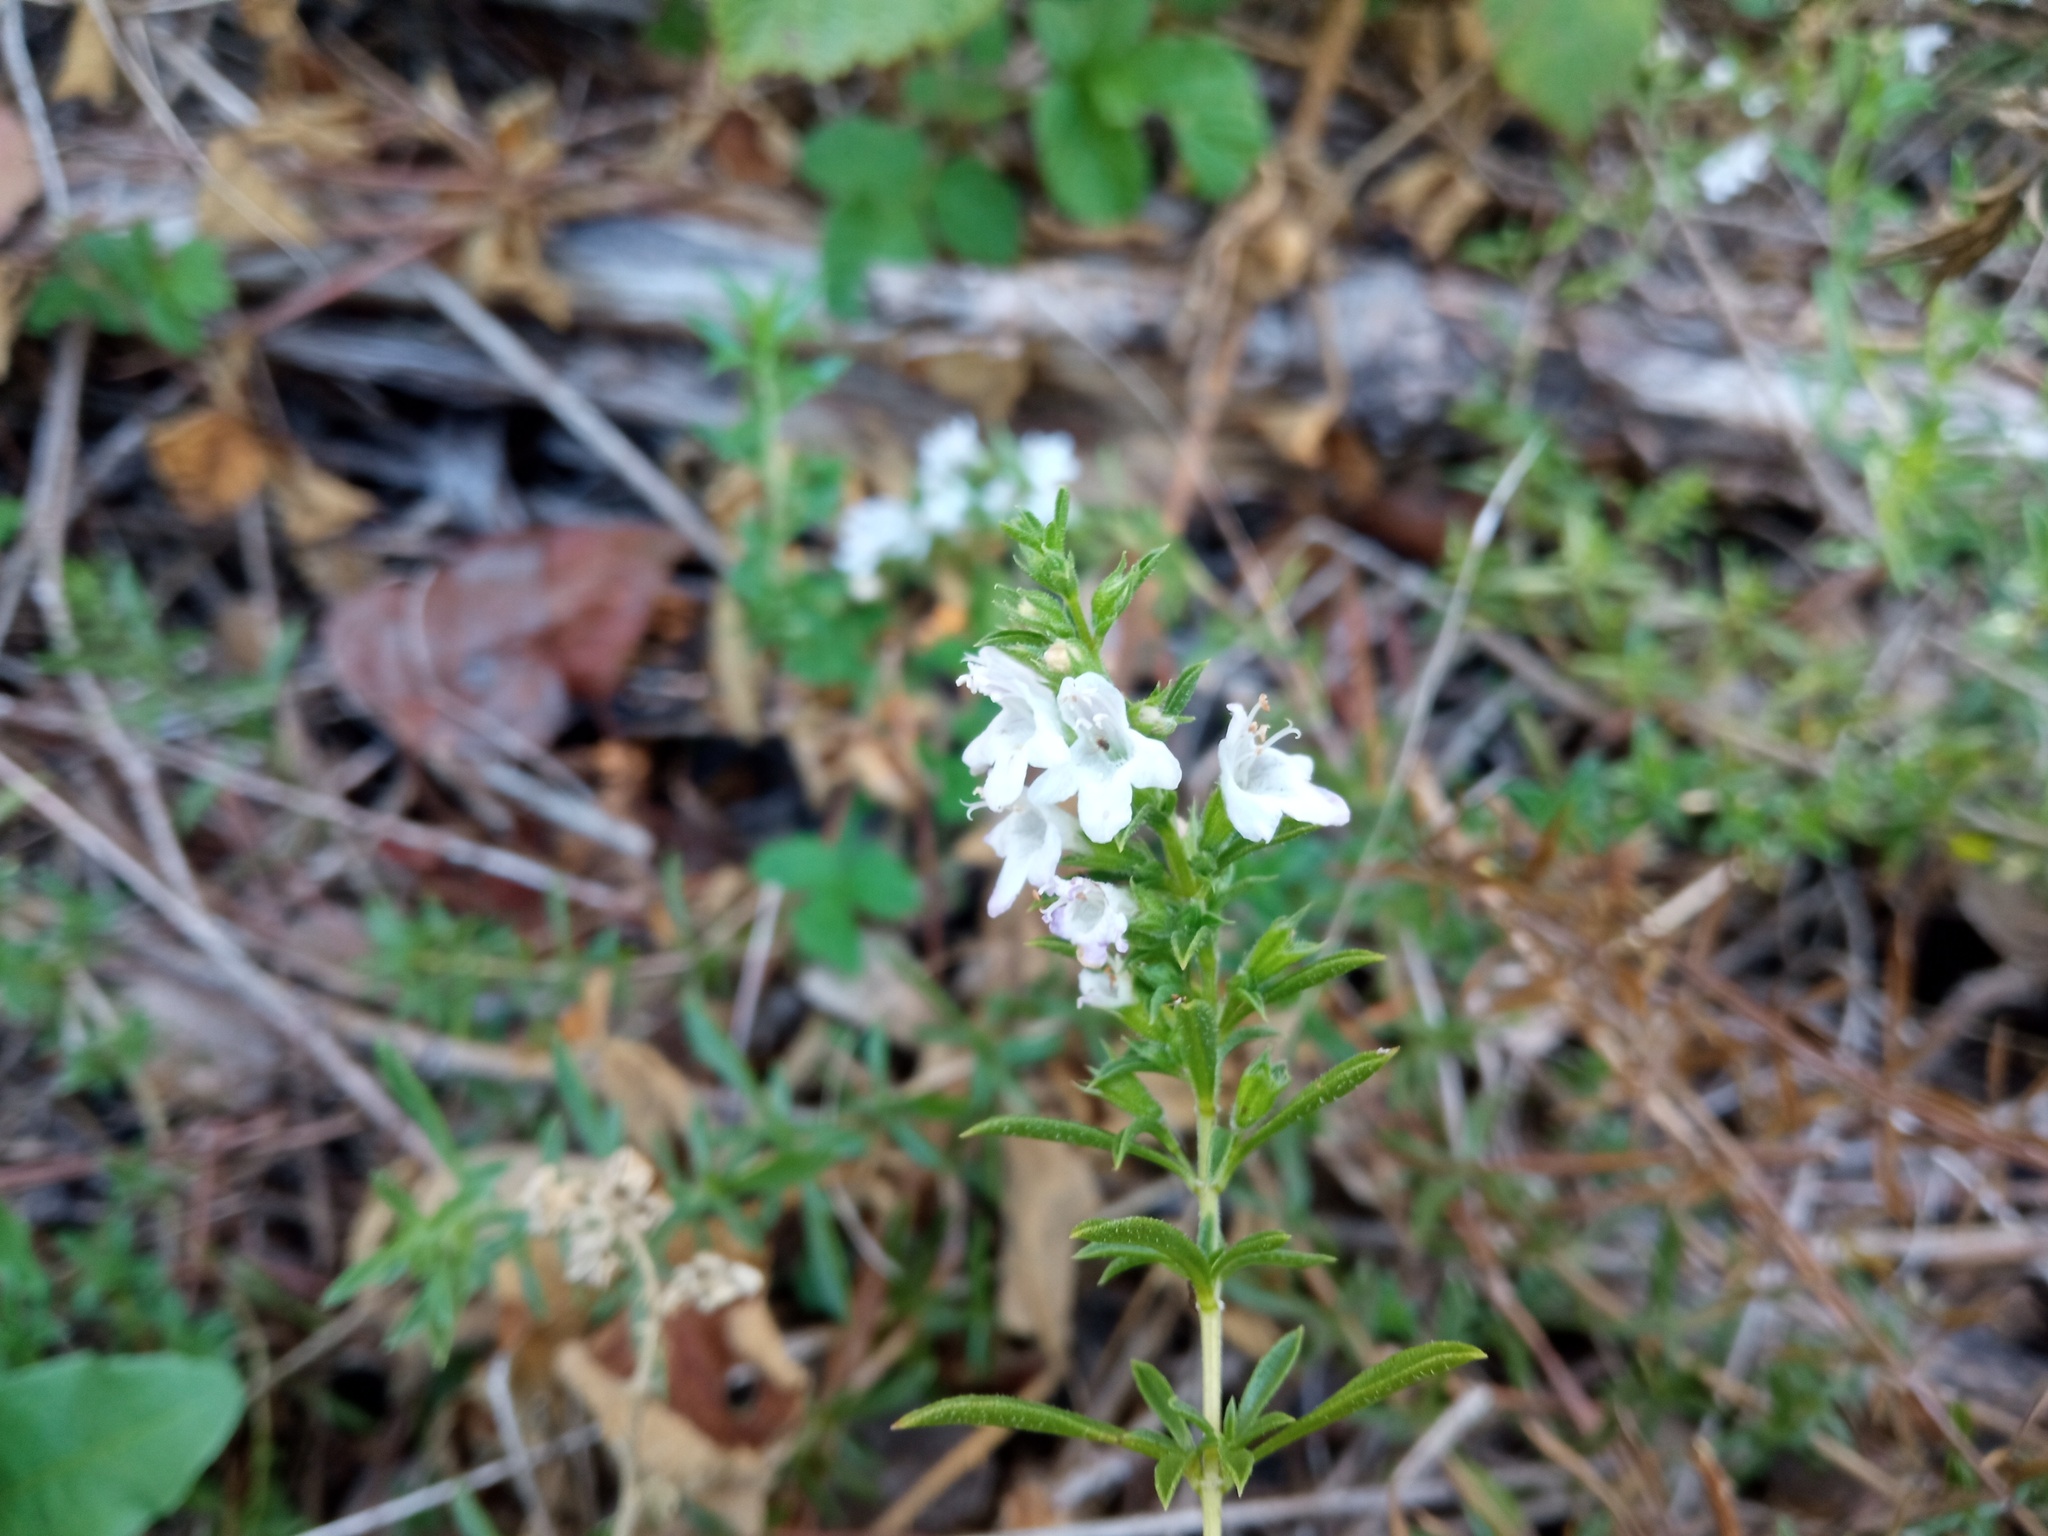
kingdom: Plantae
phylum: Tracheophyta
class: Magnoliopsida
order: Lamiales
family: Lamiaceae
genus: Satureja
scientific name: Satureja montana
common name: Winter savory
